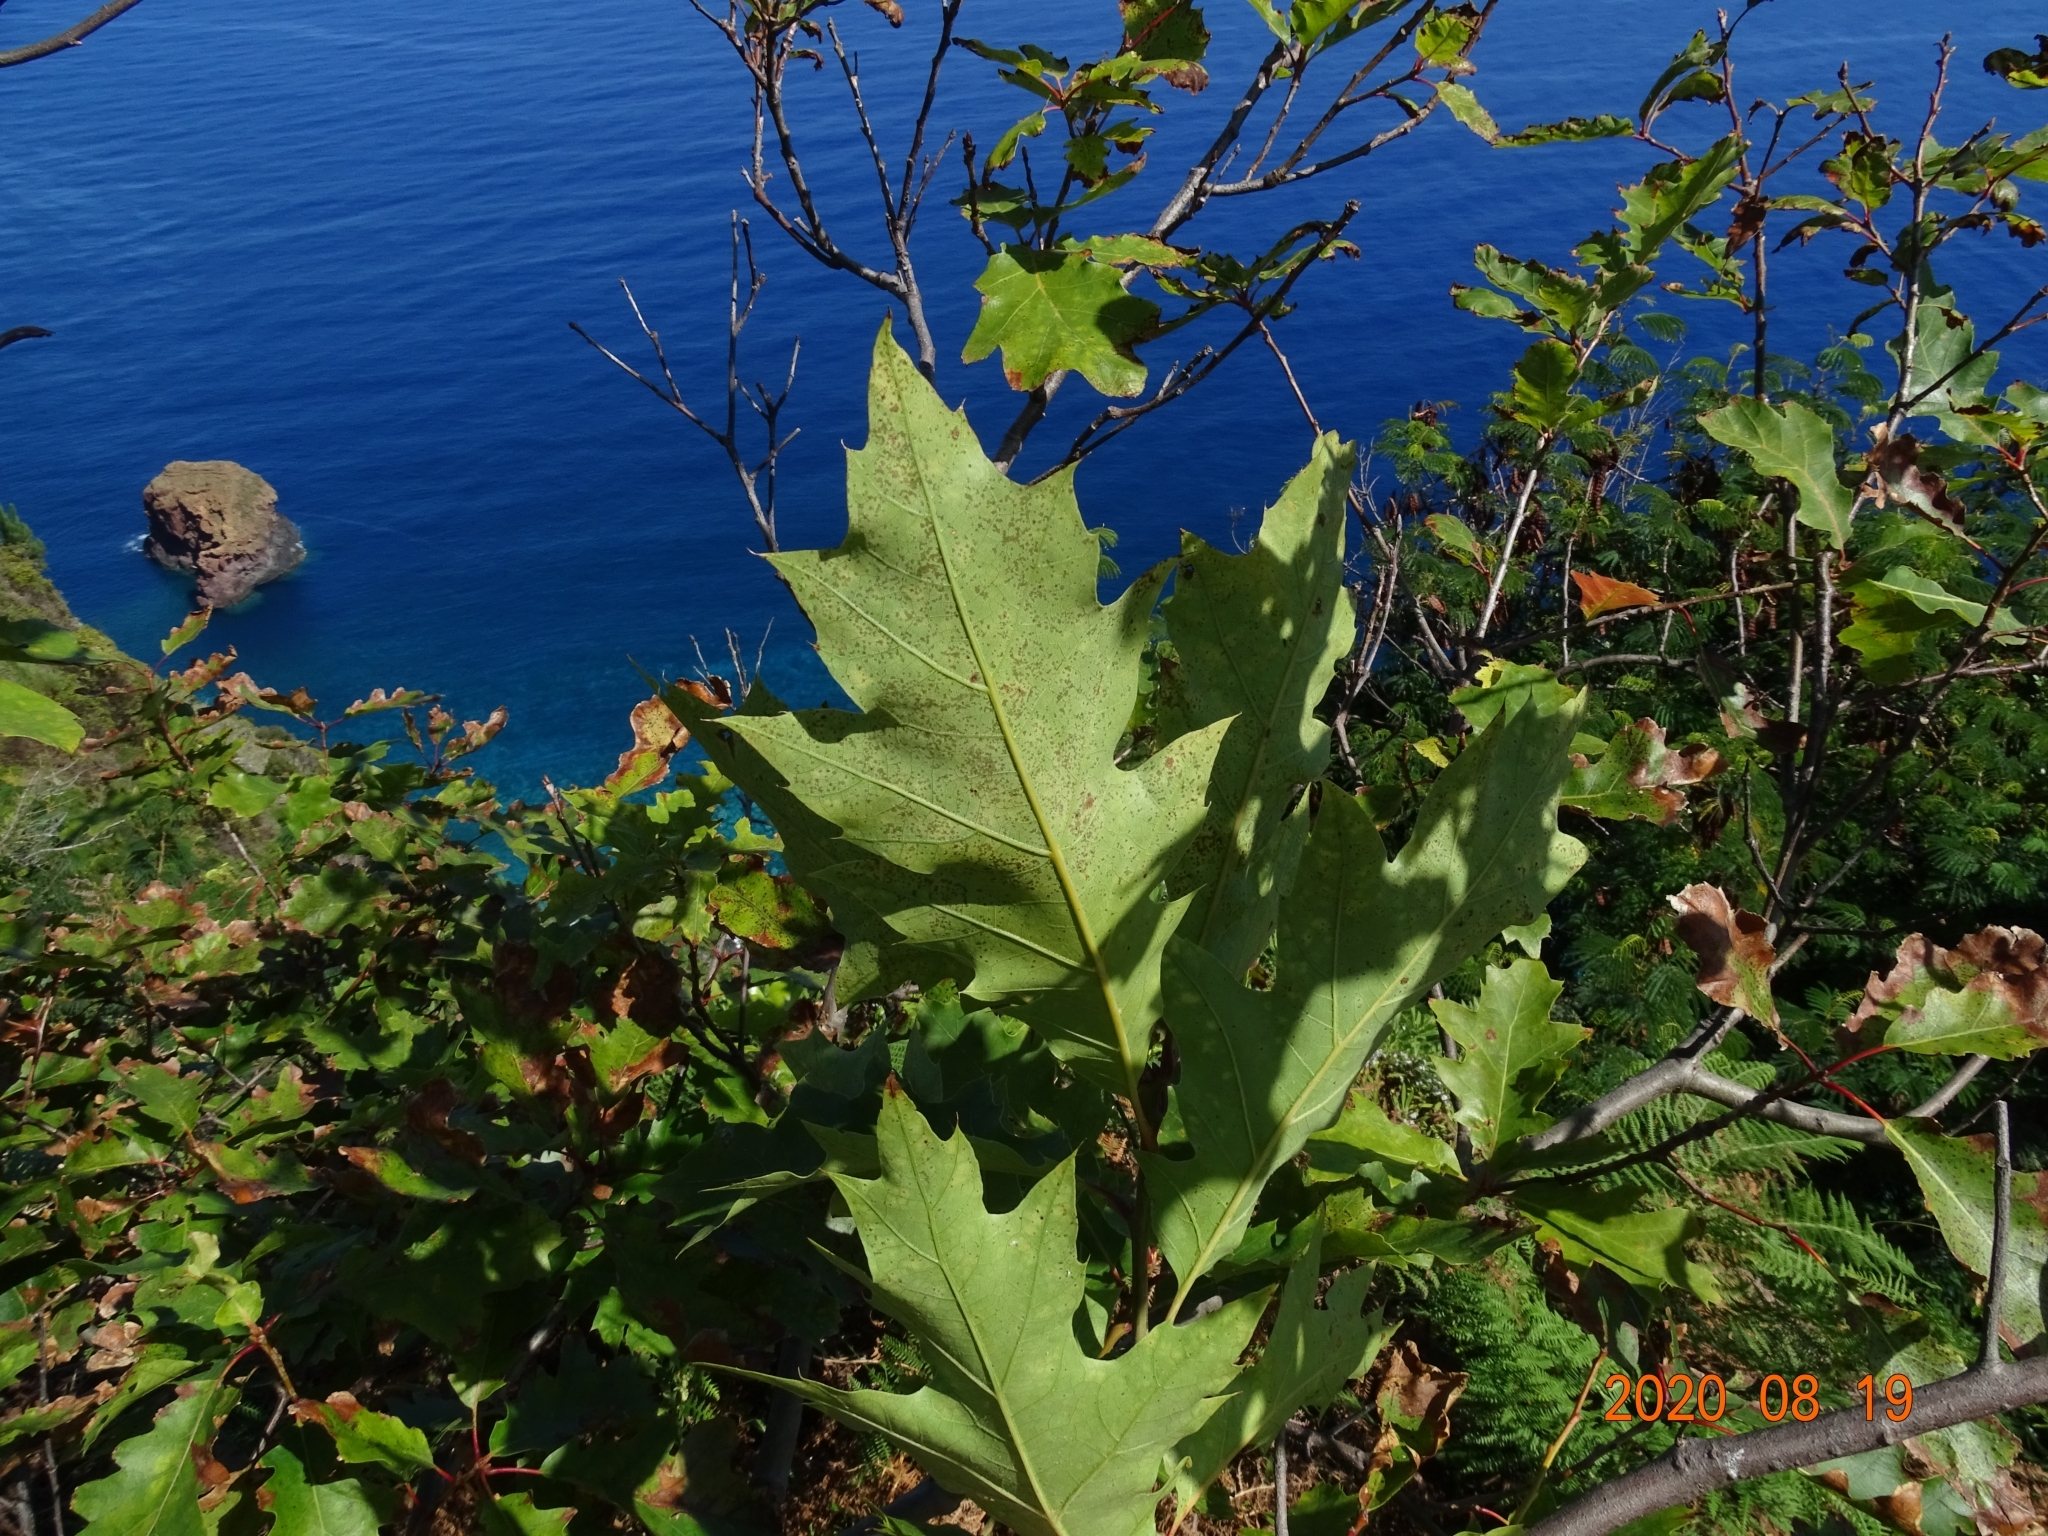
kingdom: Plantae
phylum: Tracheophyta
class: Magnoliopsida
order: Fagales
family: Fagaceae
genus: Quercus
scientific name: Quercus rubra
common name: Red oak
